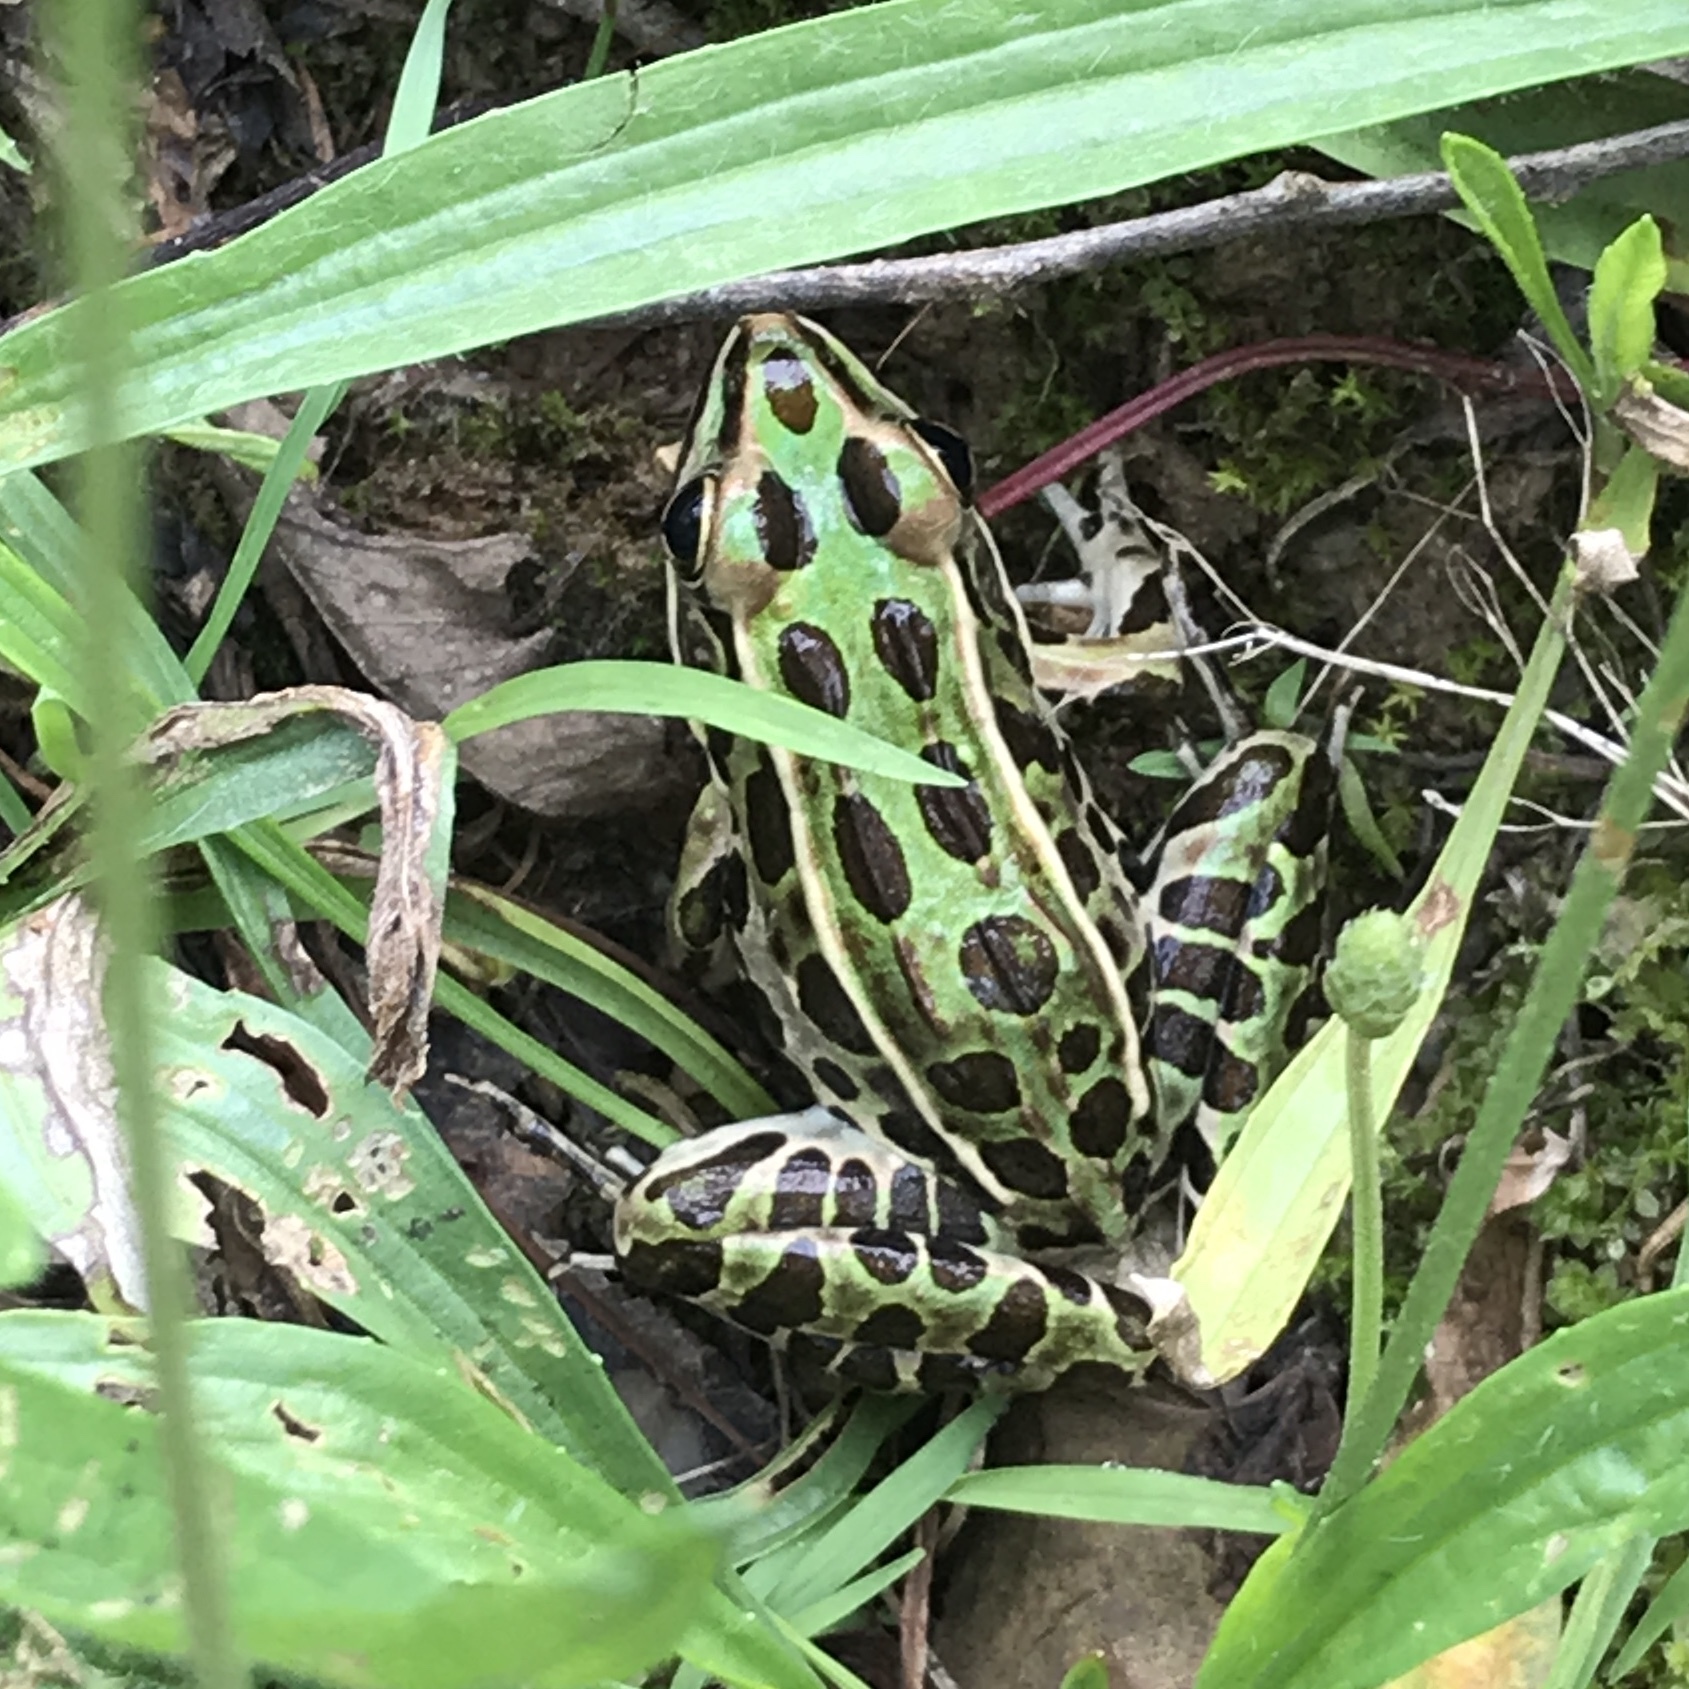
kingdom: Animalia
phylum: Chordata
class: Amphibia
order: Anura
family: Ranidae
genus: Lithobates
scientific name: Lithobates pipiens
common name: Northern leopard frog
